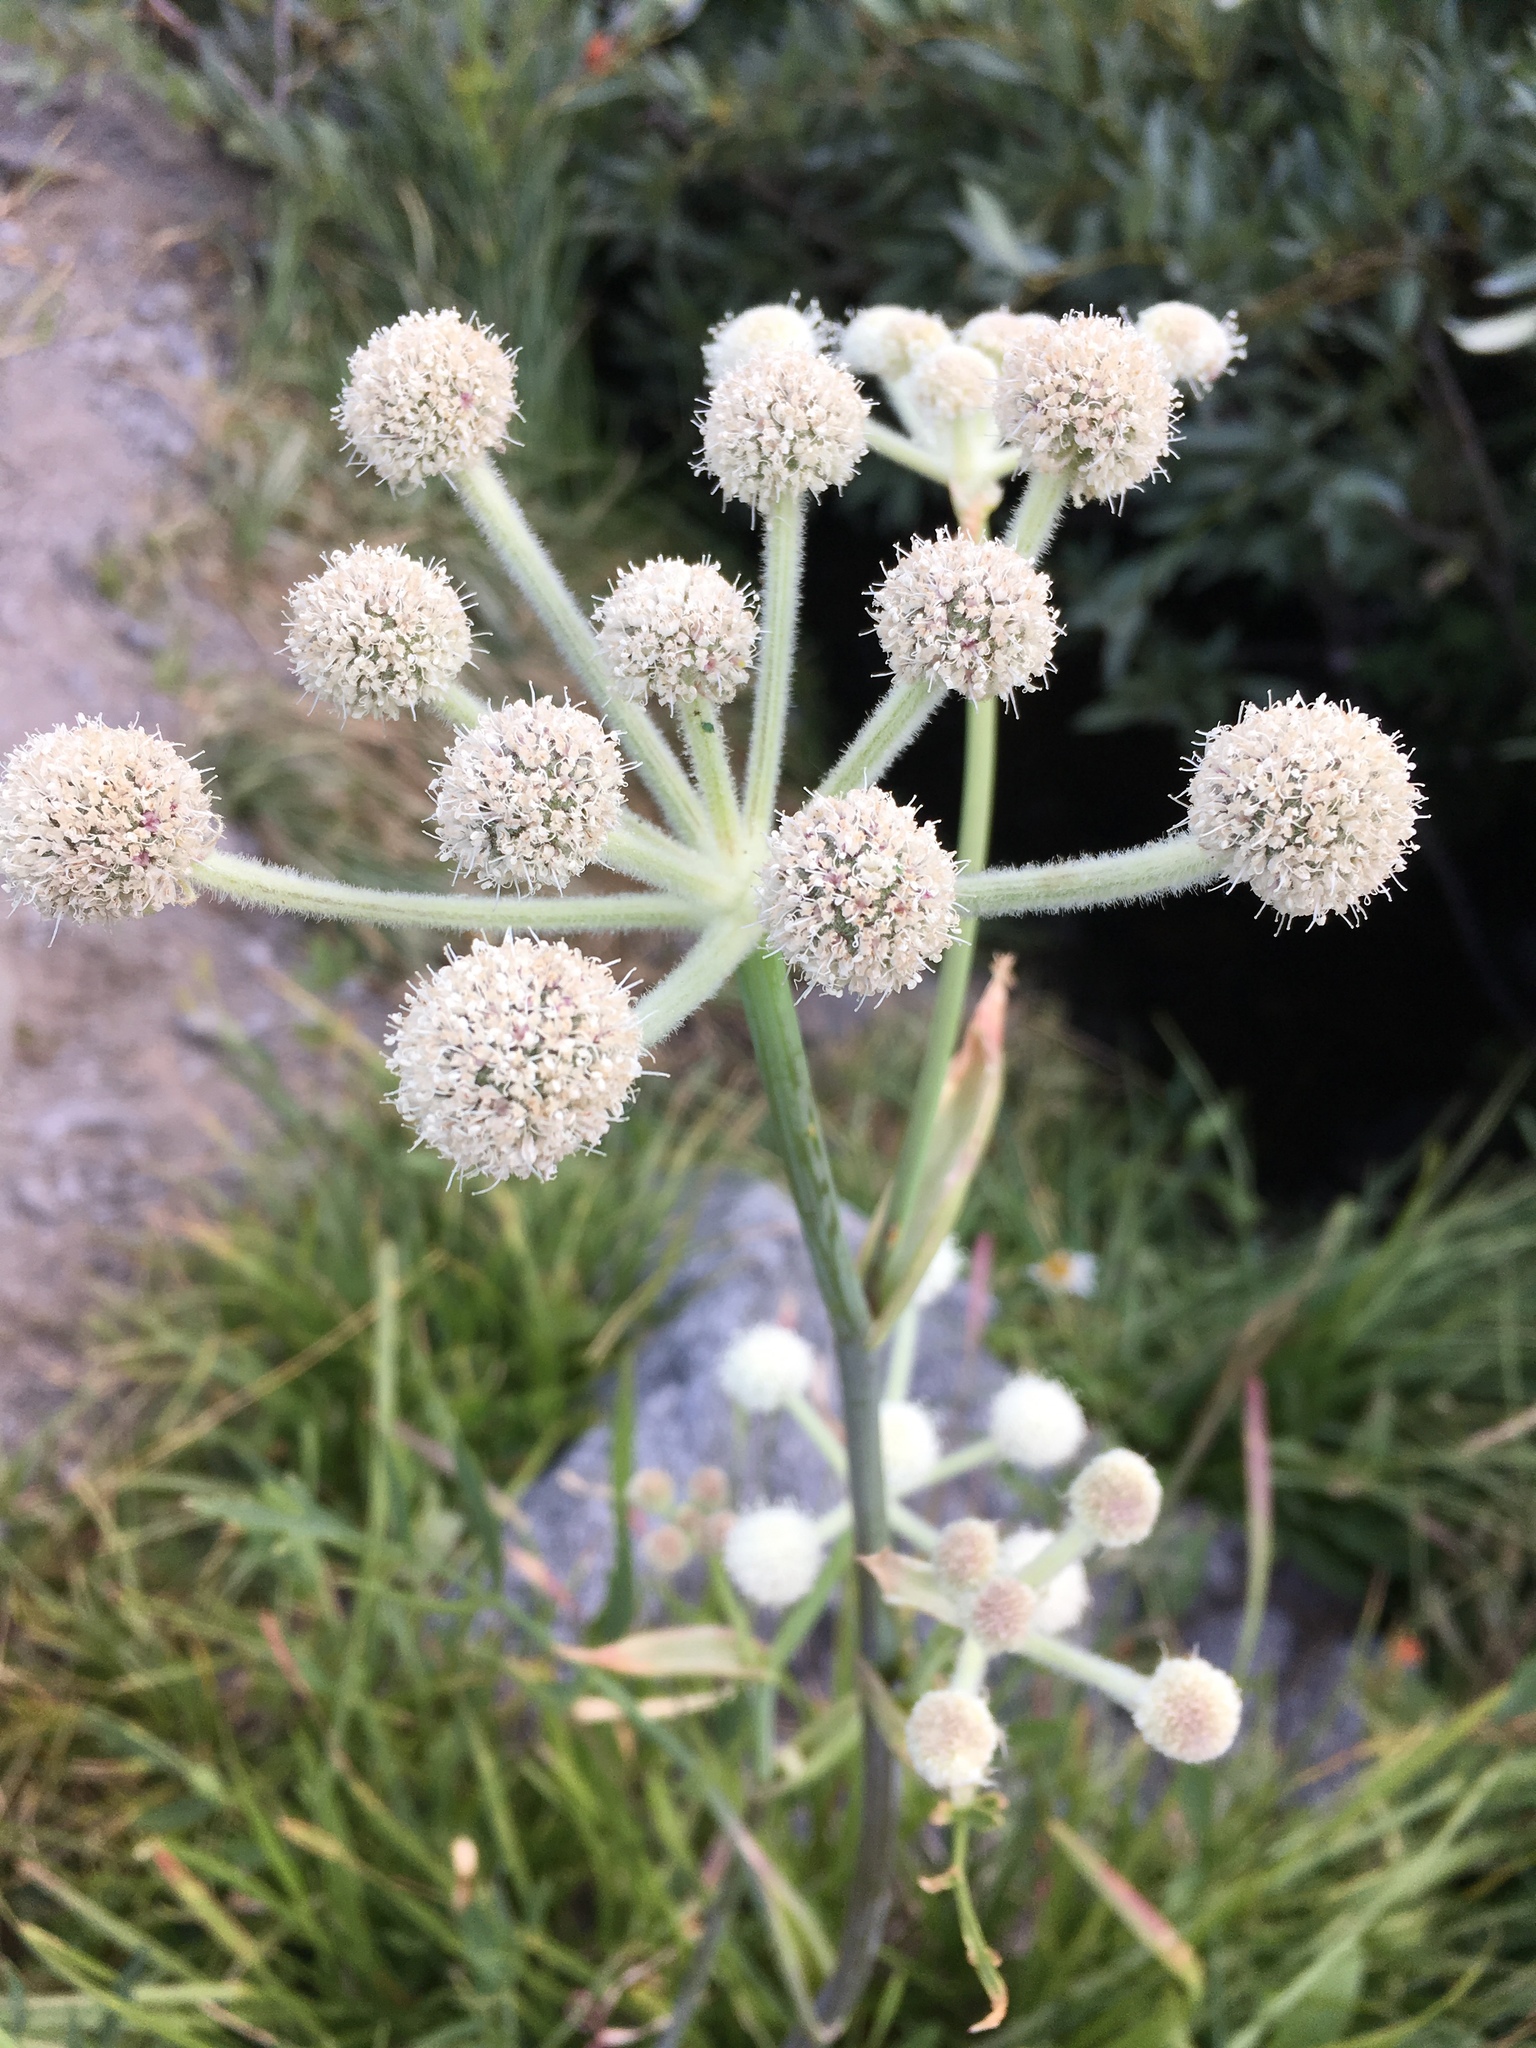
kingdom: Plantae
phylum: Tracheophyta
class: Magnoliopsida
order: Apiales
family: Apiaceae
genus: Angelica
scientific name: Angelica capitellata
